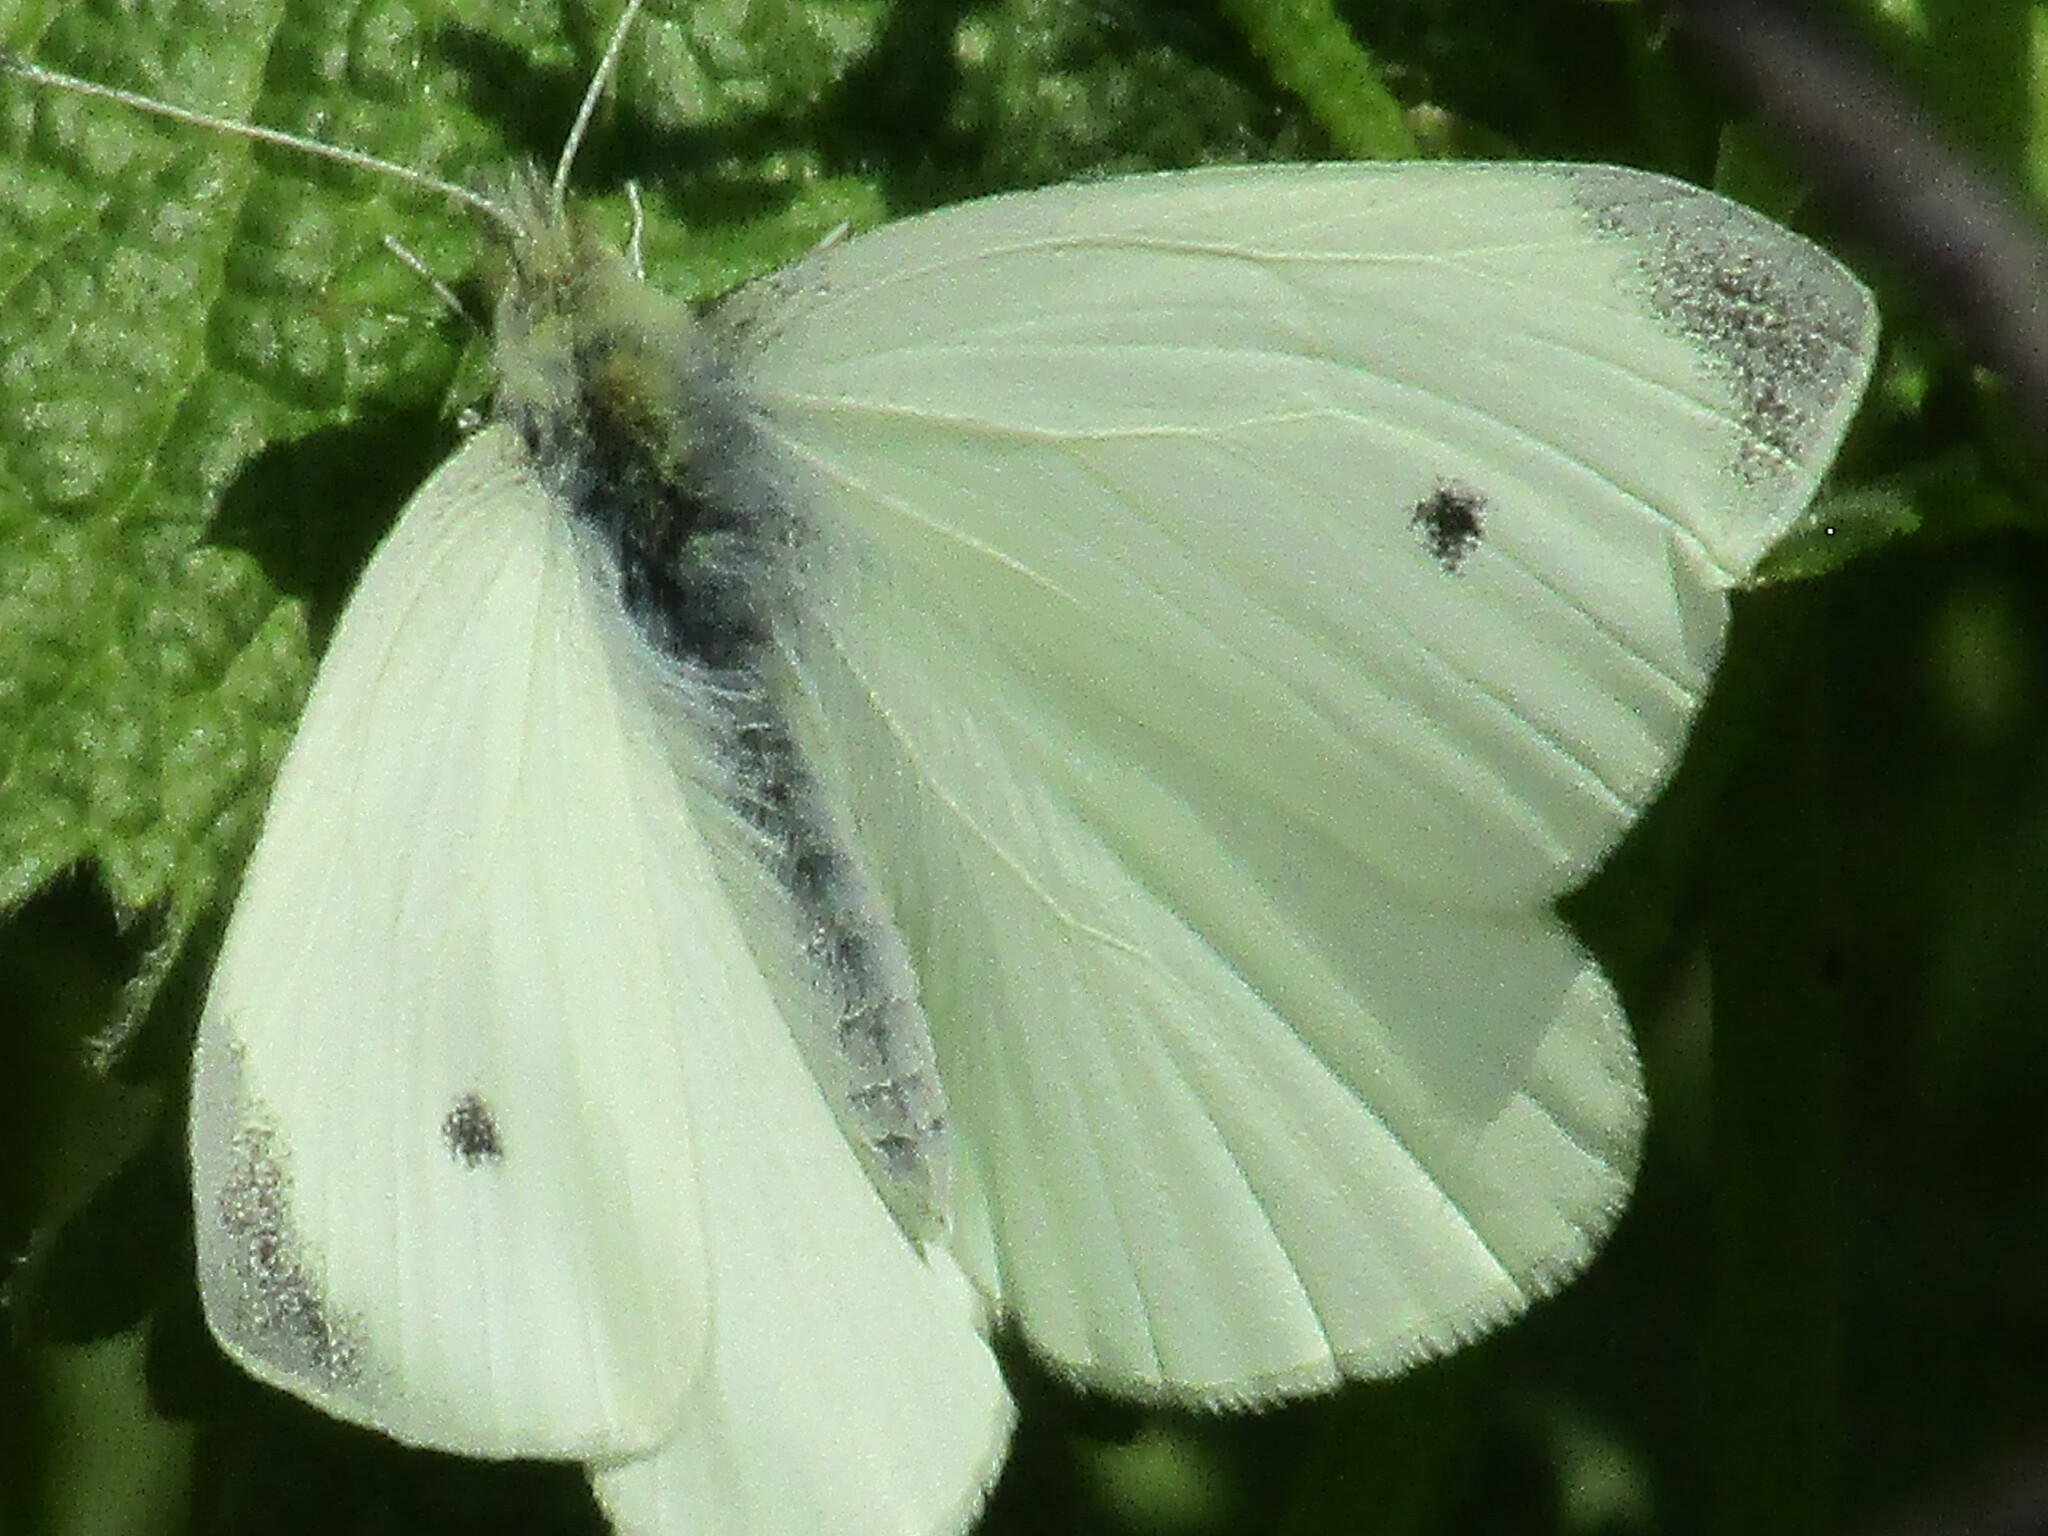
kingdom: Animalia
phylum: Arthropoda
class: Insecta
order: Lepidoptera
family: Pieridae
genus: Pieris
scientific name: Pieris rapae
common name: Small white
